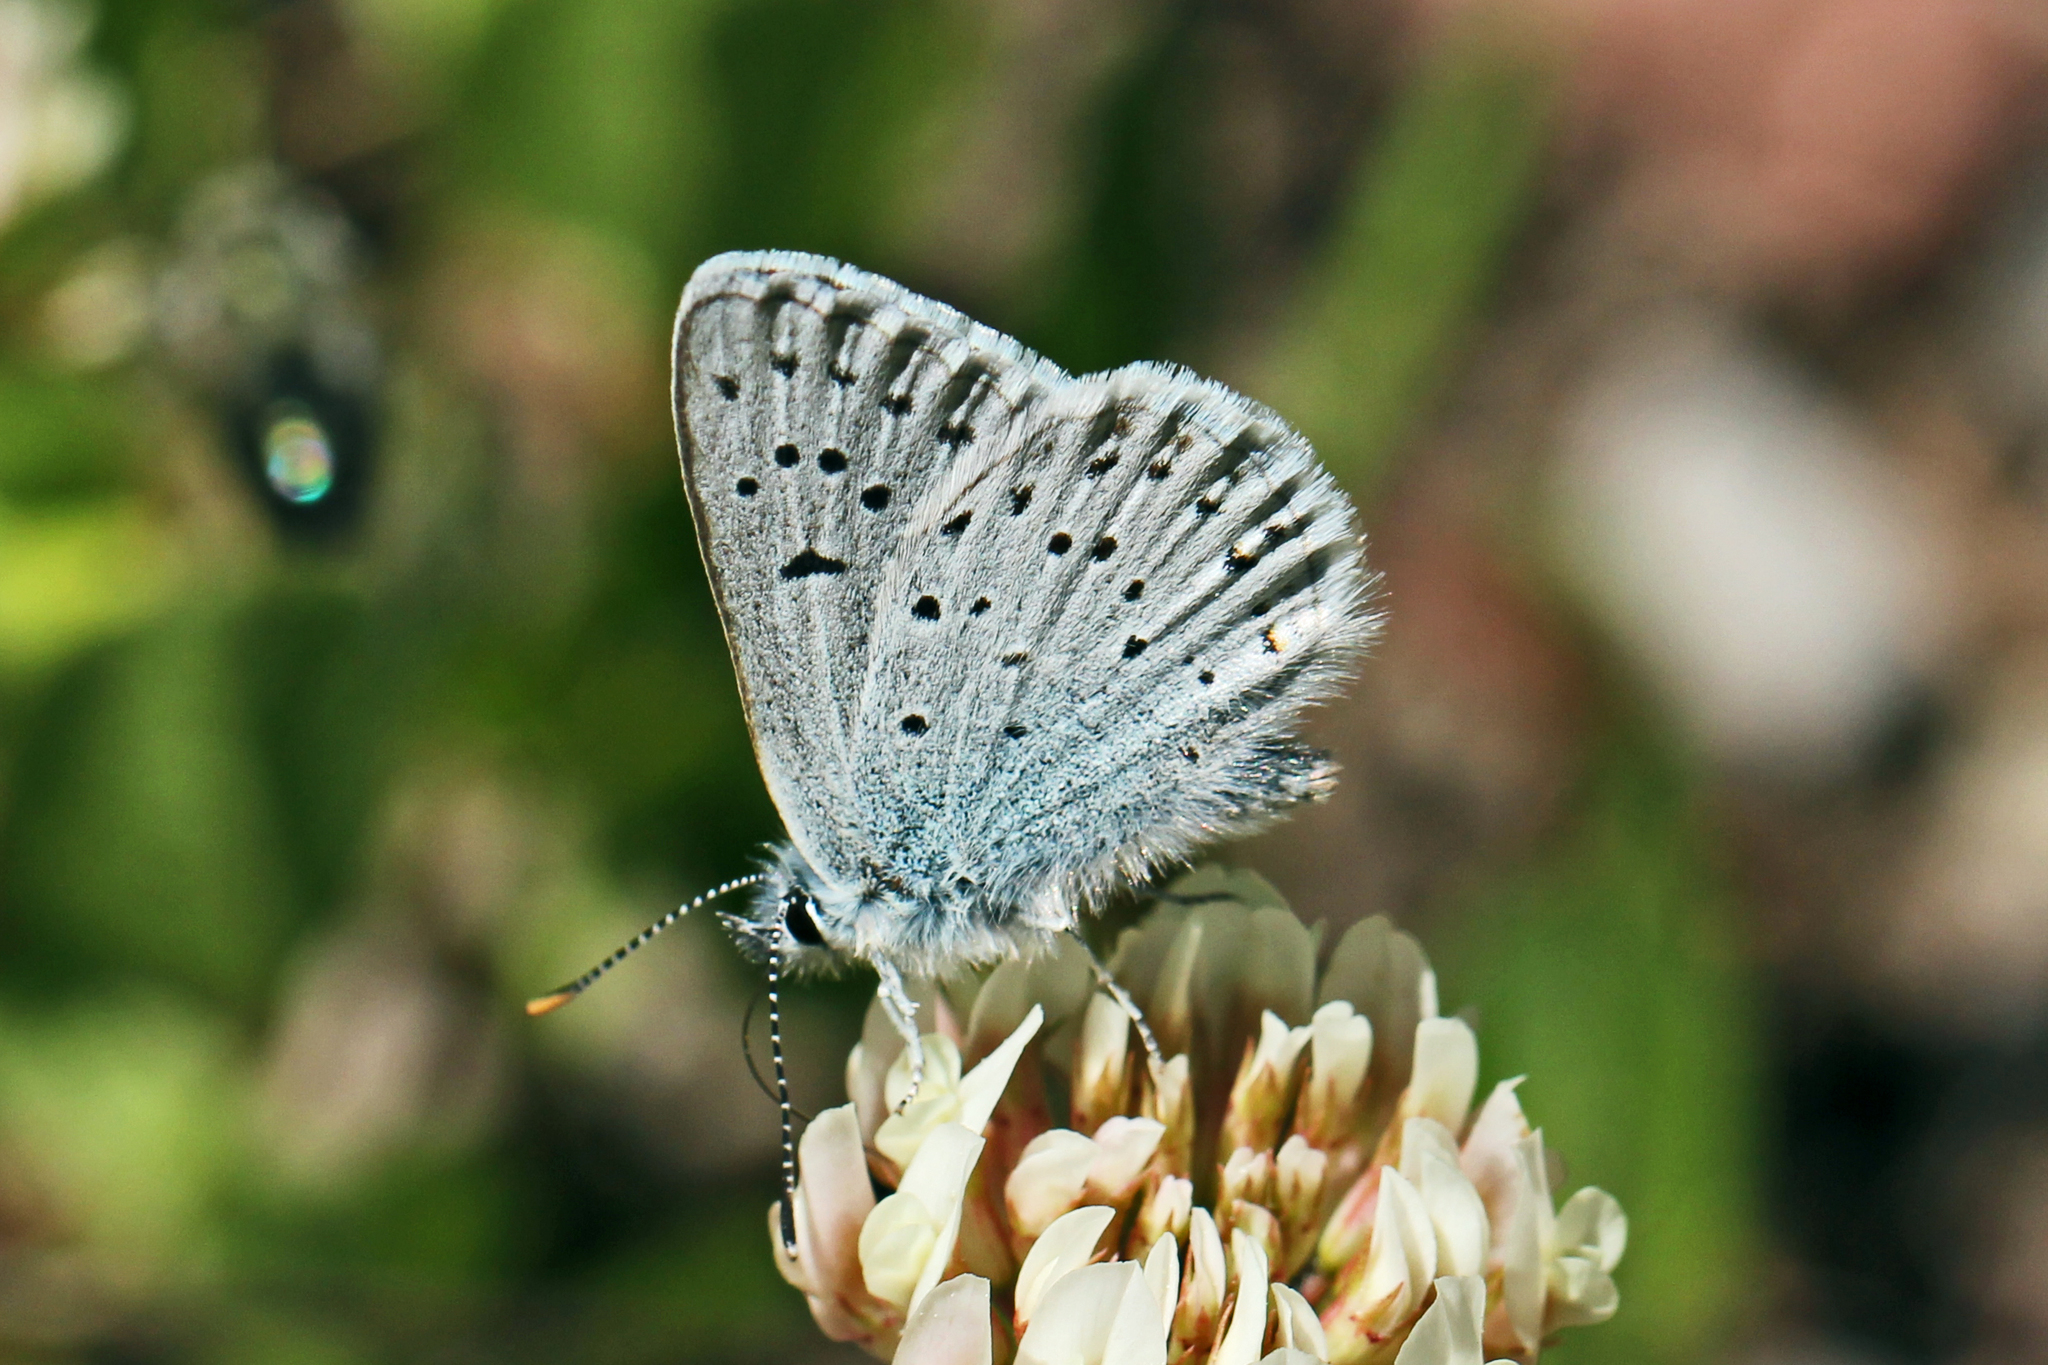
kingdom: Animalia
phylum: Arthropoda
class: Insecta
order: Lepidoptera
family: Lycaenidae
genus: Icaricia
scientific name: Icaricia saepiolus
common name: Greenish blue
